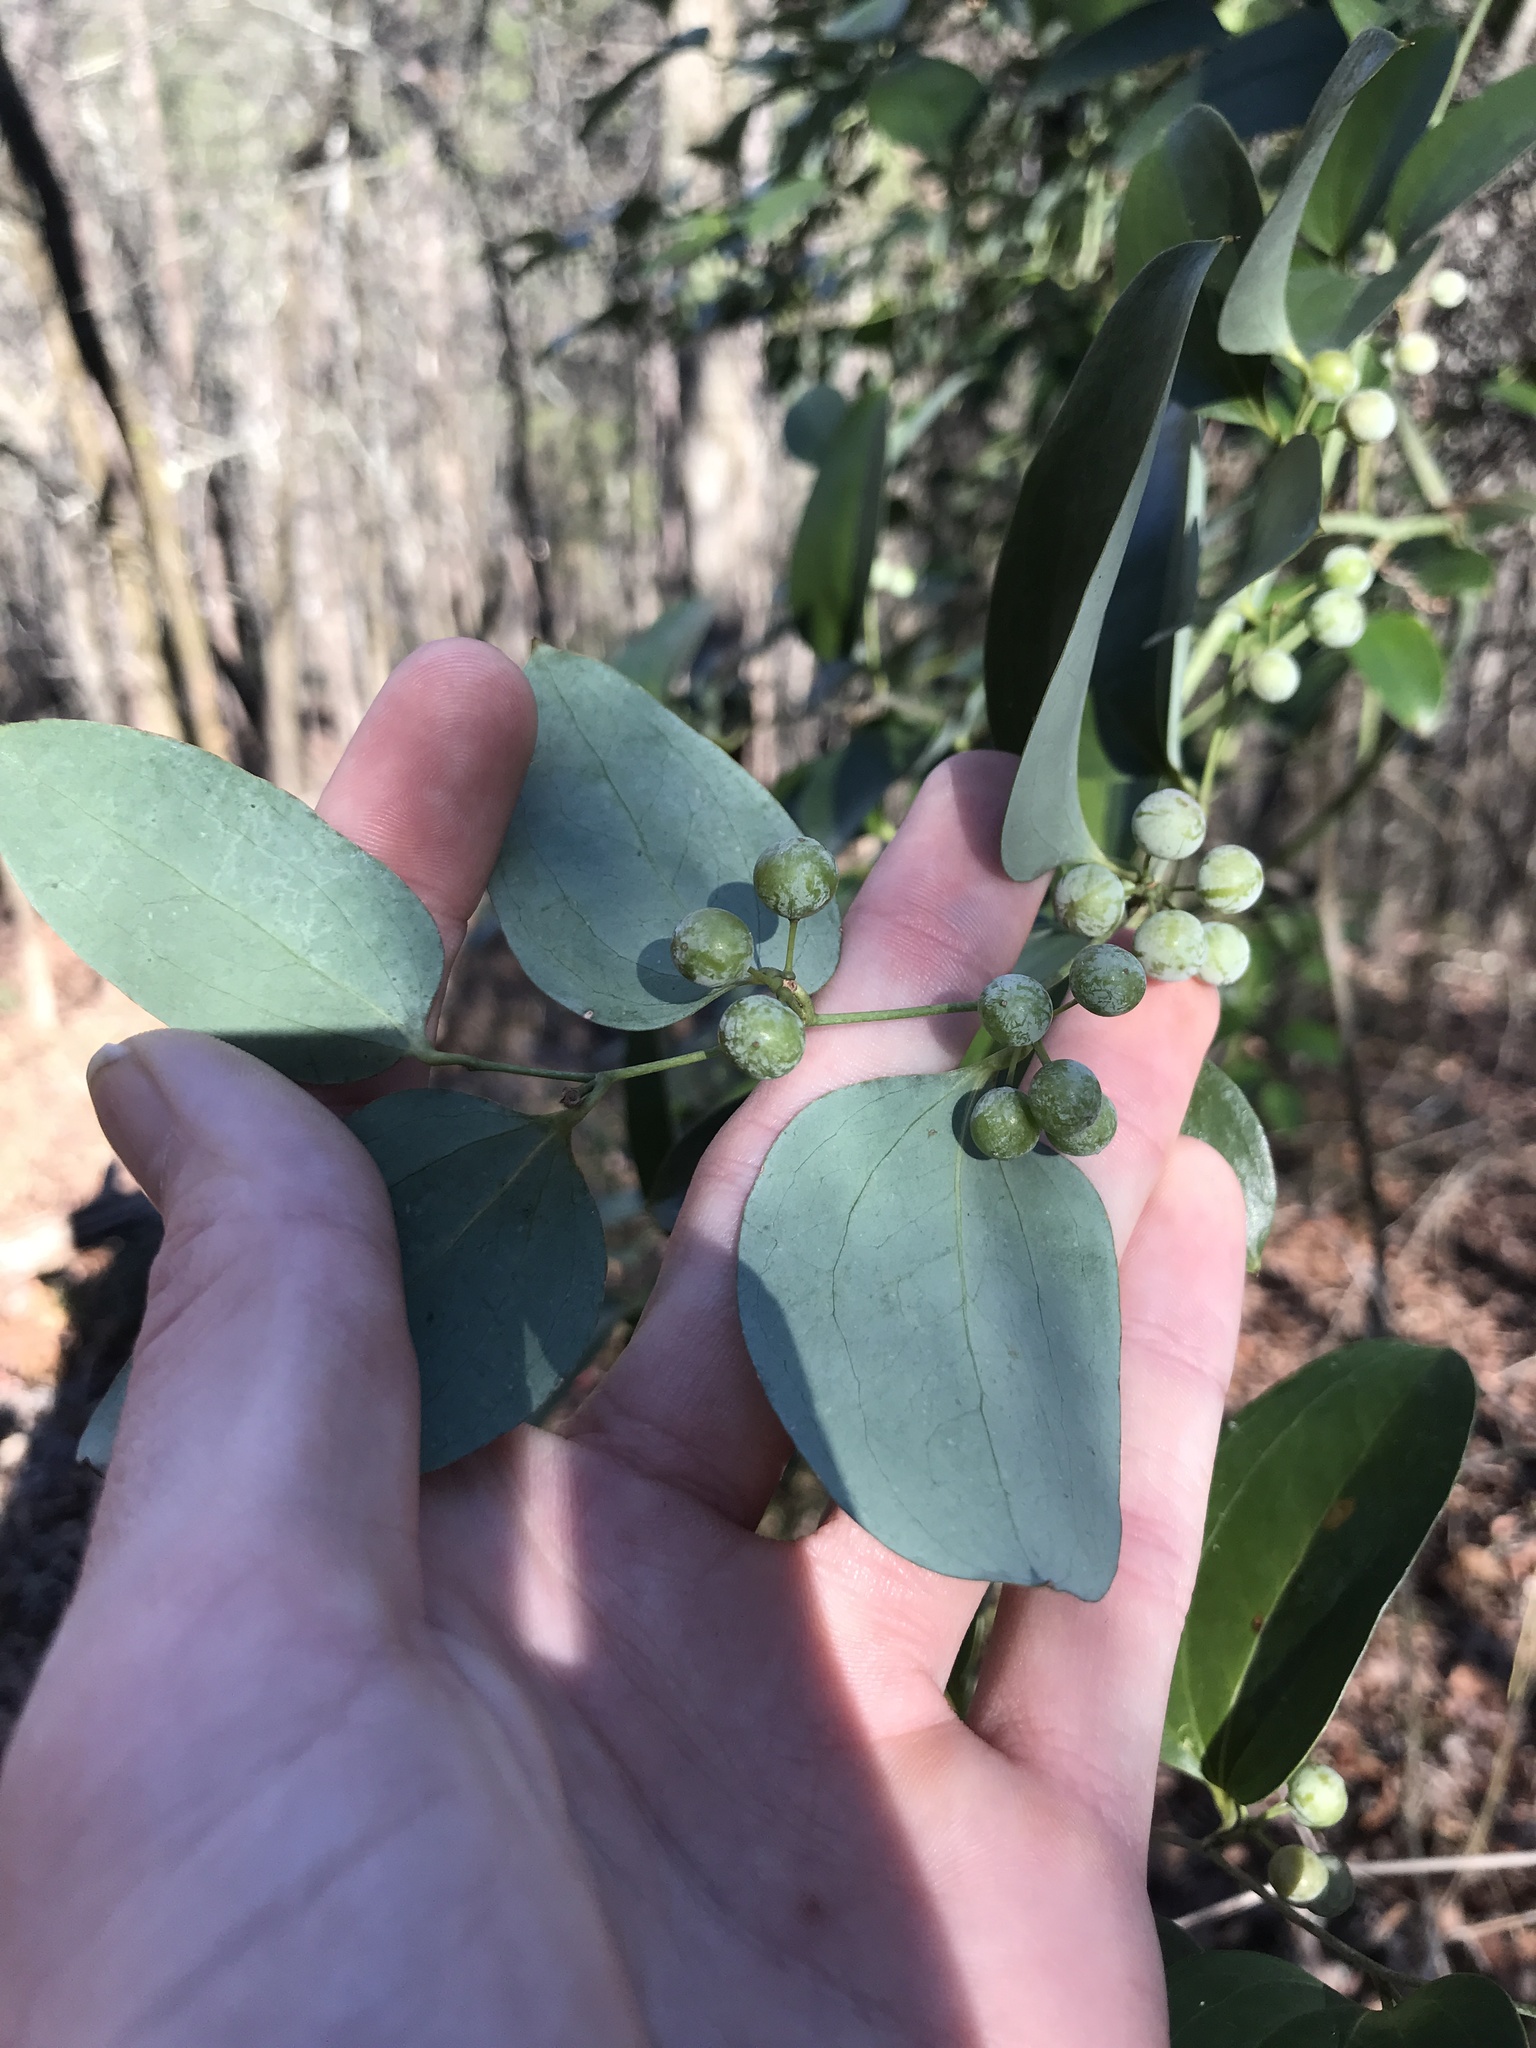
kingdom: Plantae
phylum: Tracheophyta
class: Liliopsida
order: Liliales
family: Smilacaceae
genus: Smilax
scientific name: Smilax glauca
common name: Cat greenbrier
